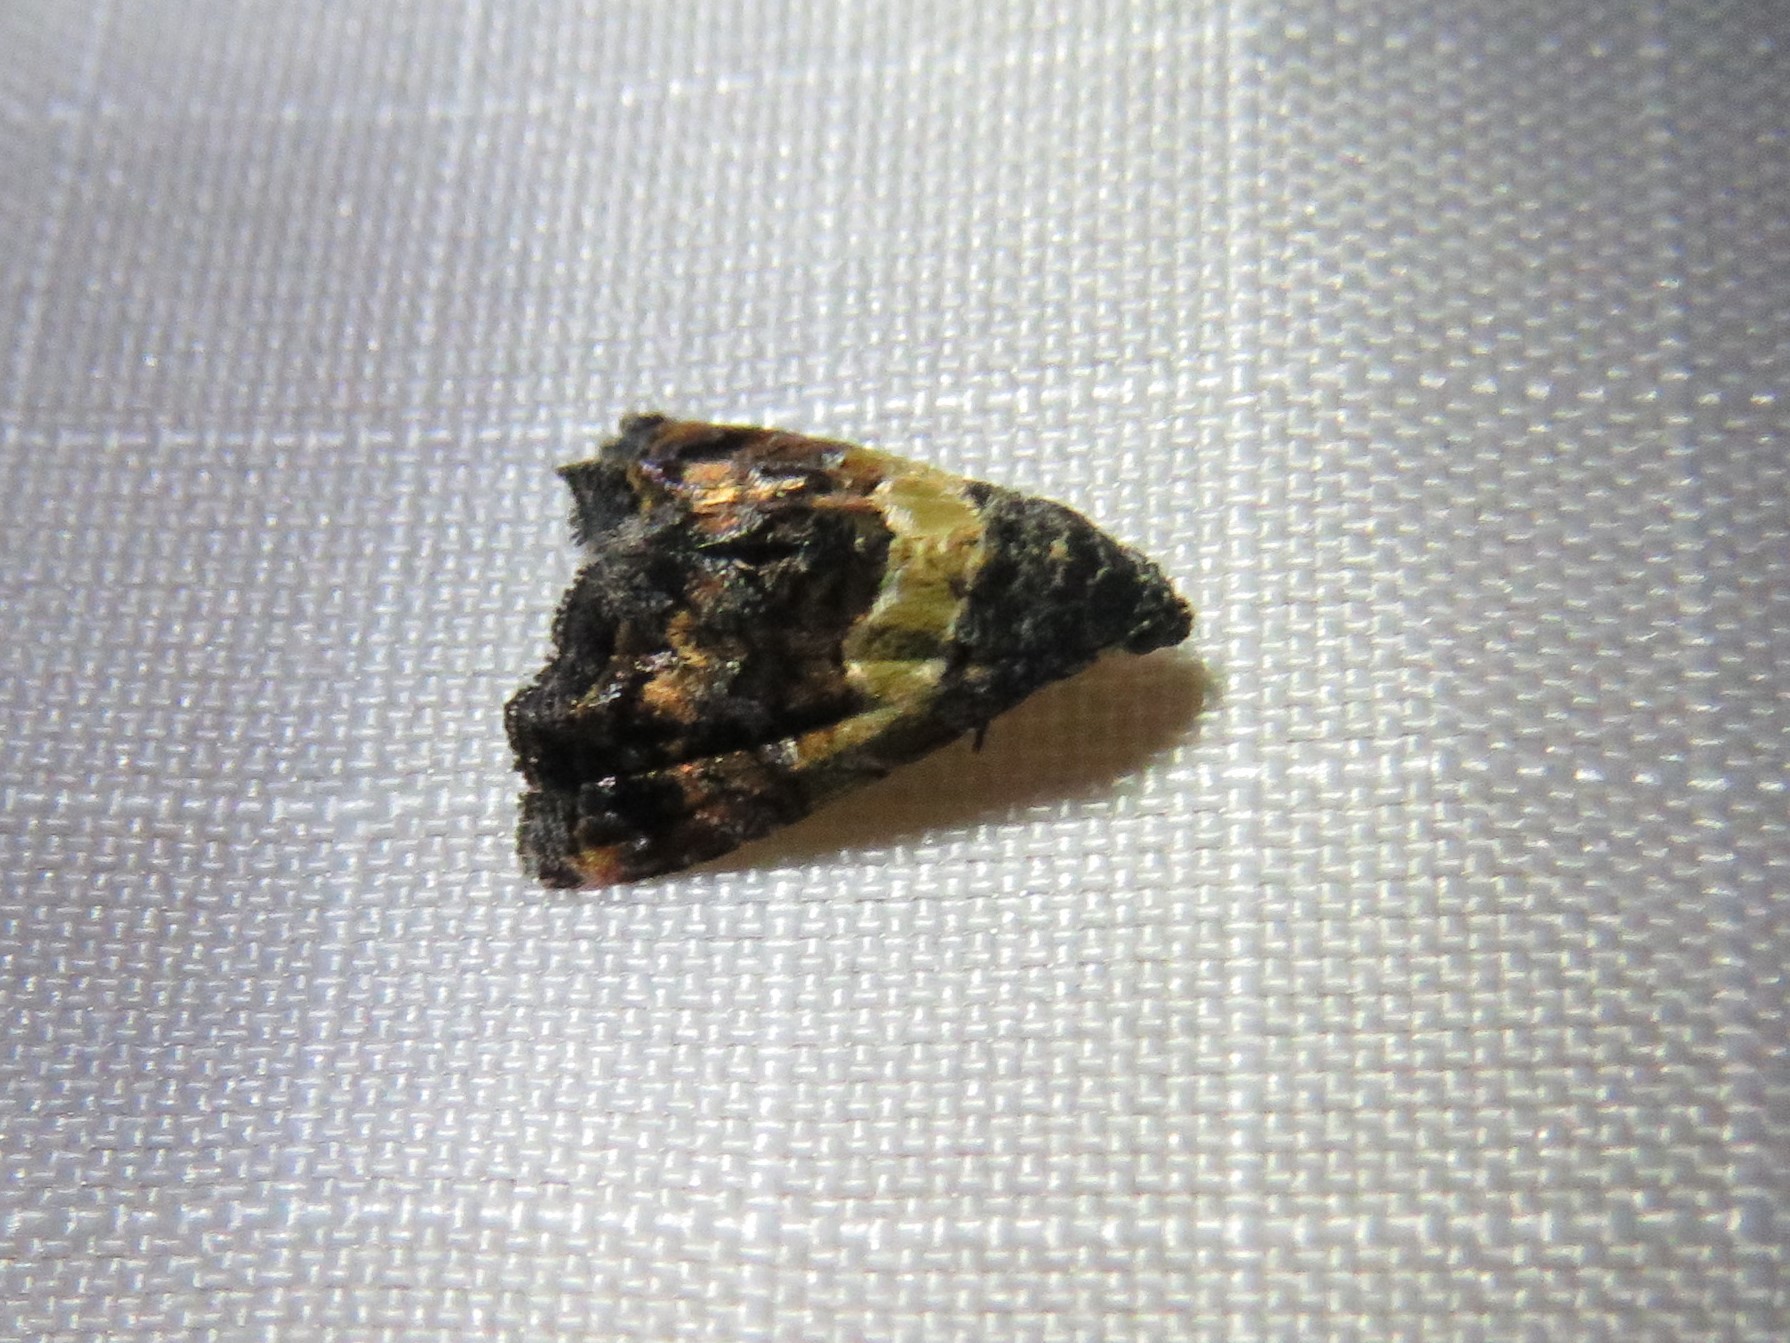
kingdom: Animalia
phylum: Arthropoda
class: Insecta
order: Lepidoptera
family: Noctuidae
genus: Tripudia
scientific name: Tripudia flavofasciata
